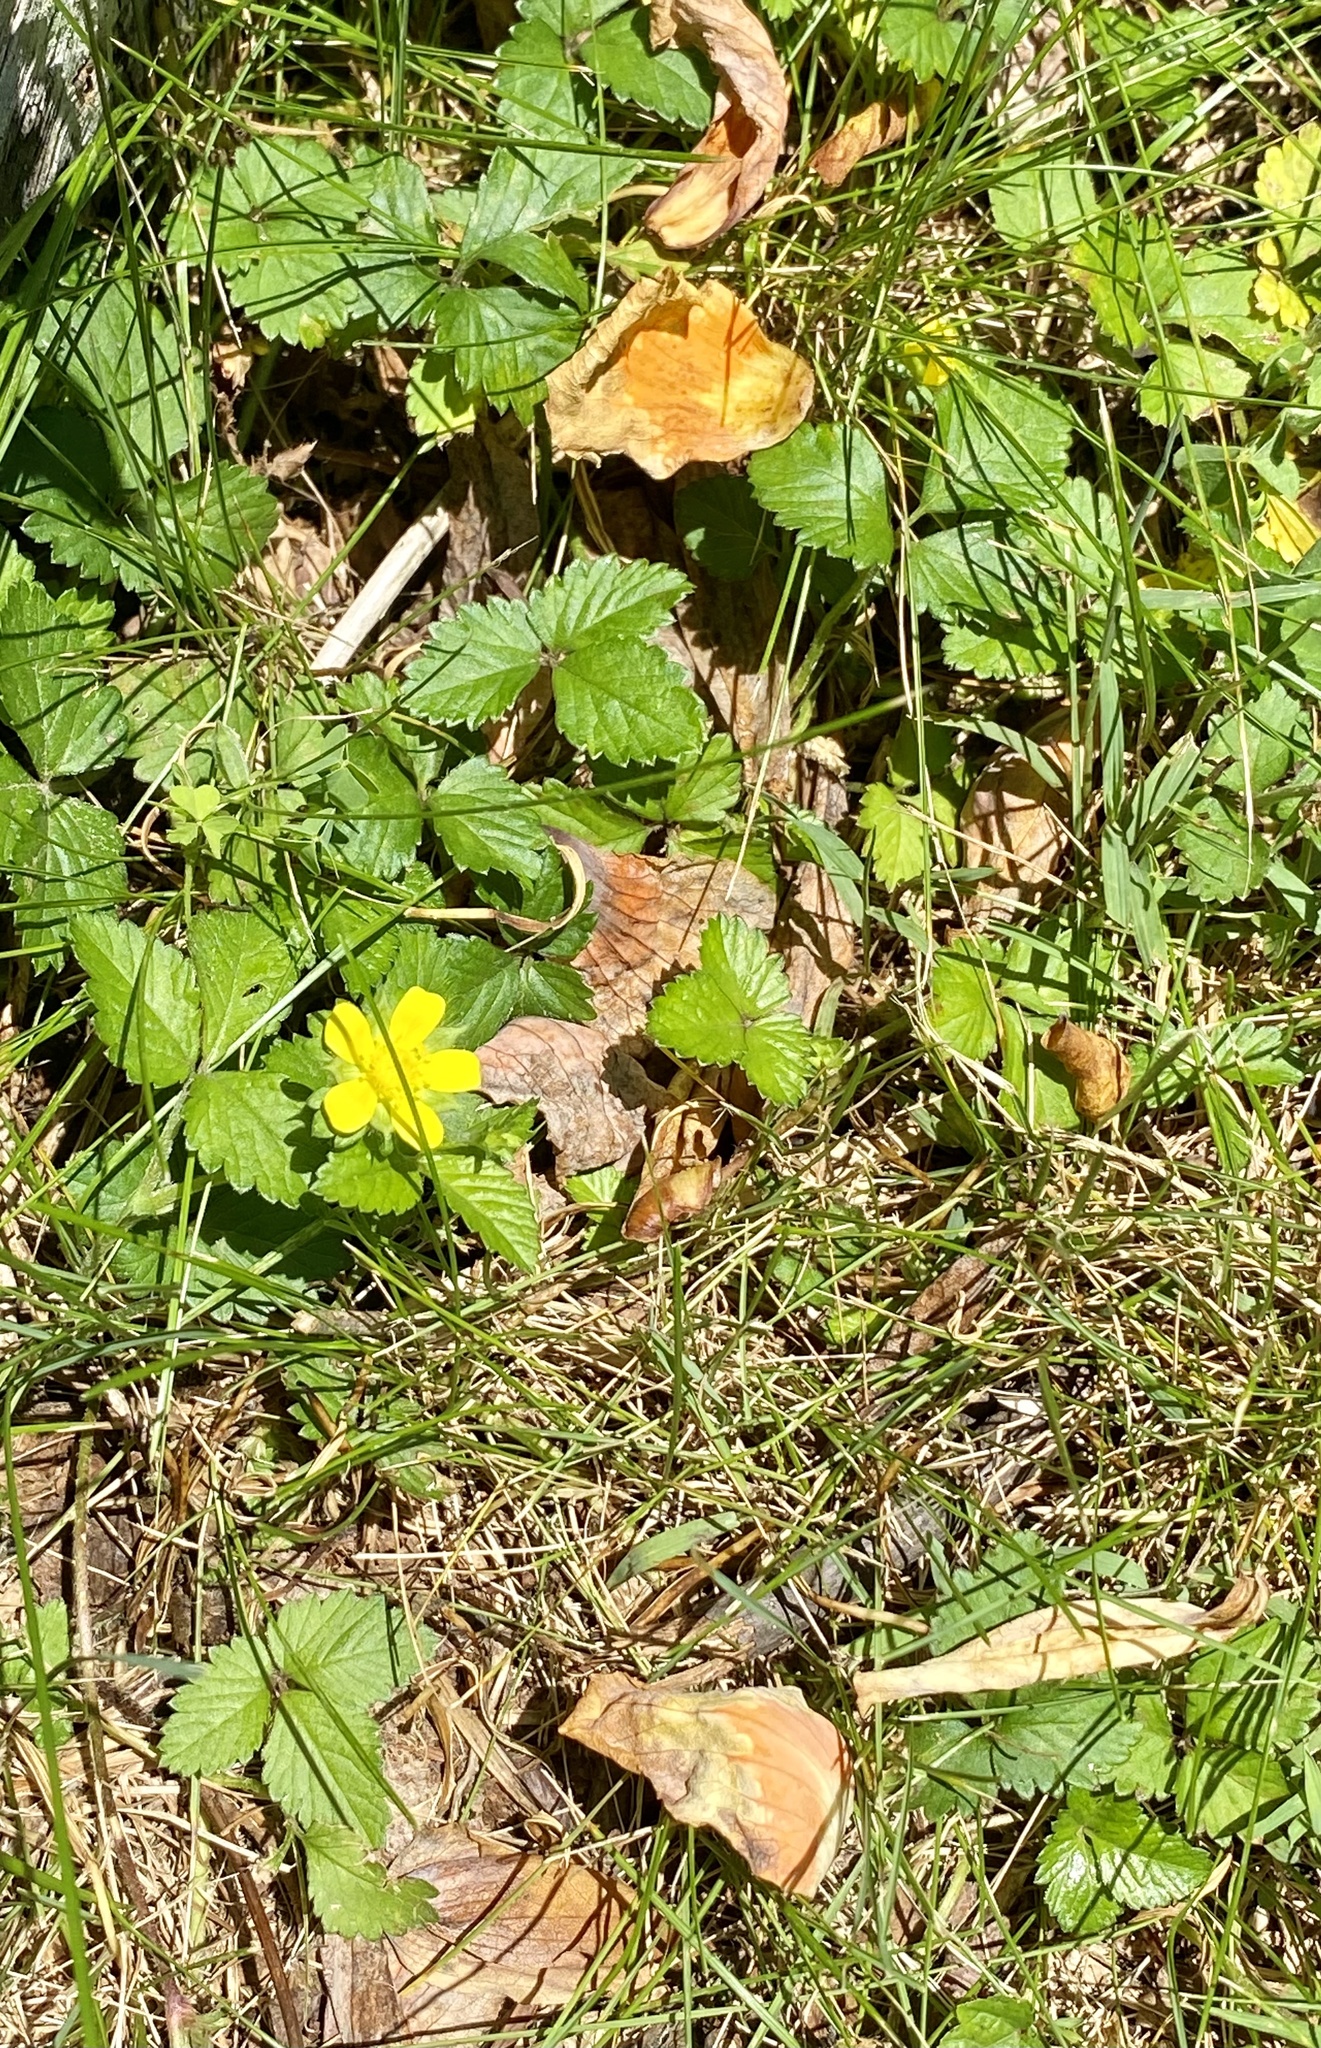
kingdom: Plantae
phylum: Tracheophyta
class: Magnoliopsida
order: Rosales
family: Rosaceae
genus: Potentilla
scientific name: Potentilla indica
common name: Yellow-flowered strawberry
